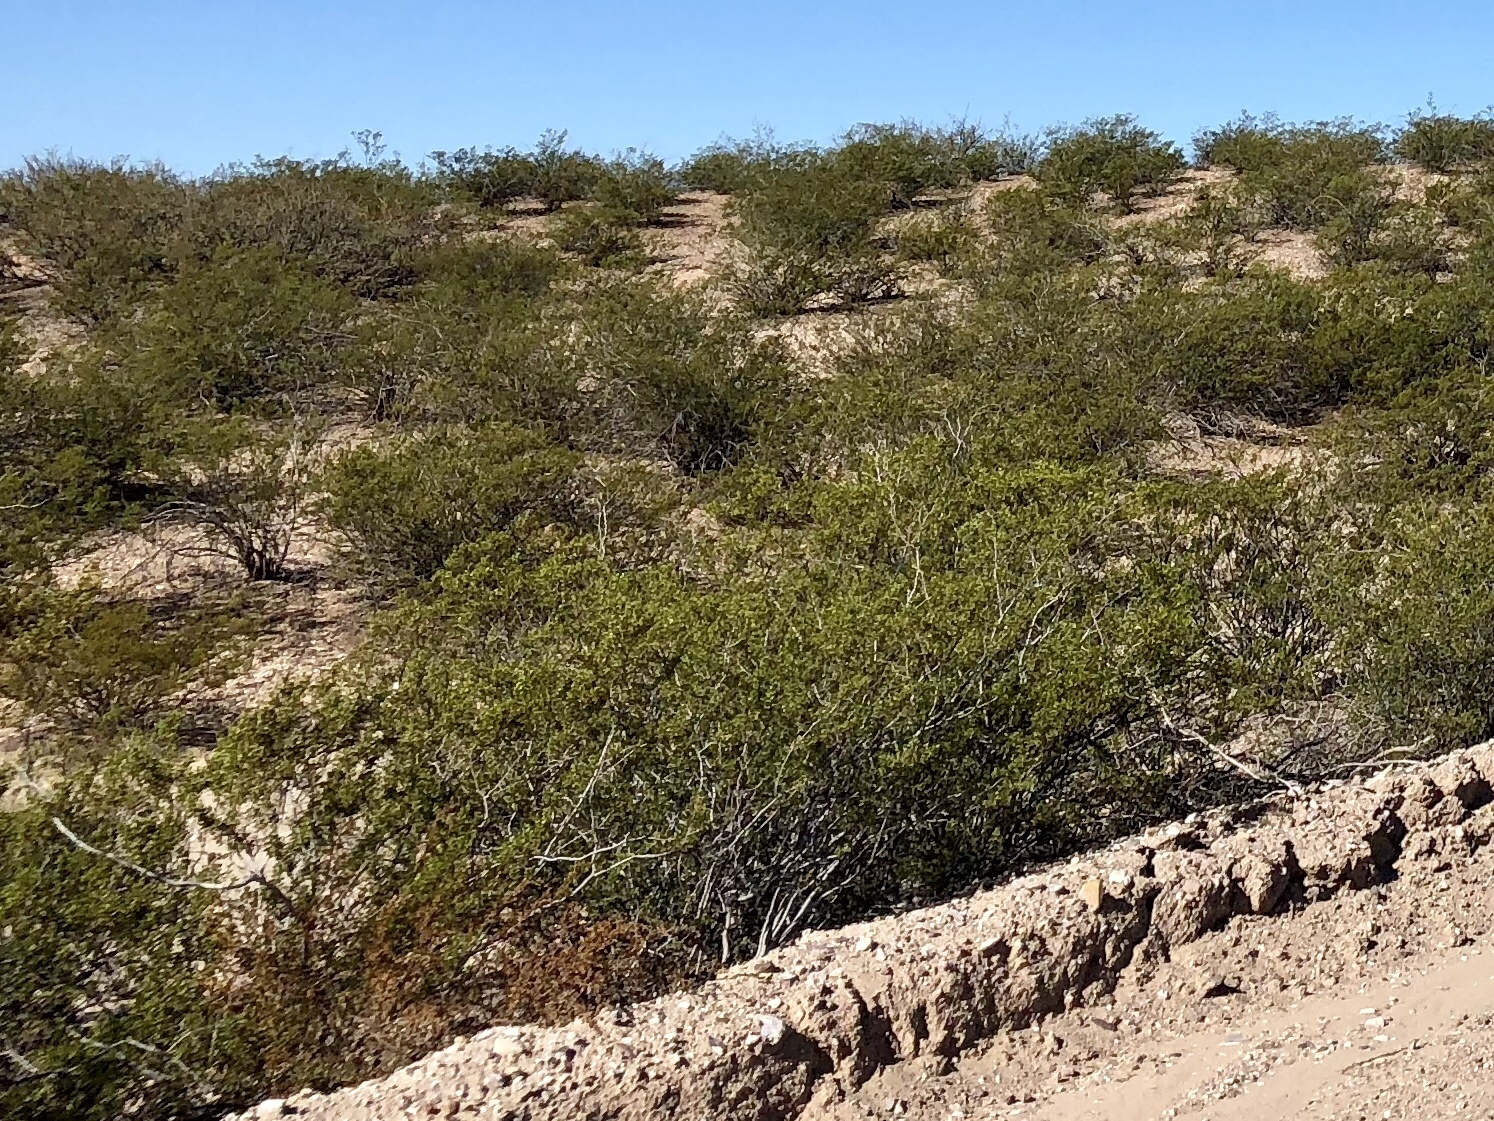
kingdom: Plantae
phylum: Tracheophyta
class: Magnoliopsida
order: Zygophyllales
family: Zygophyllaceae
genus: Larrea
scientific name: Larrea tridentata
